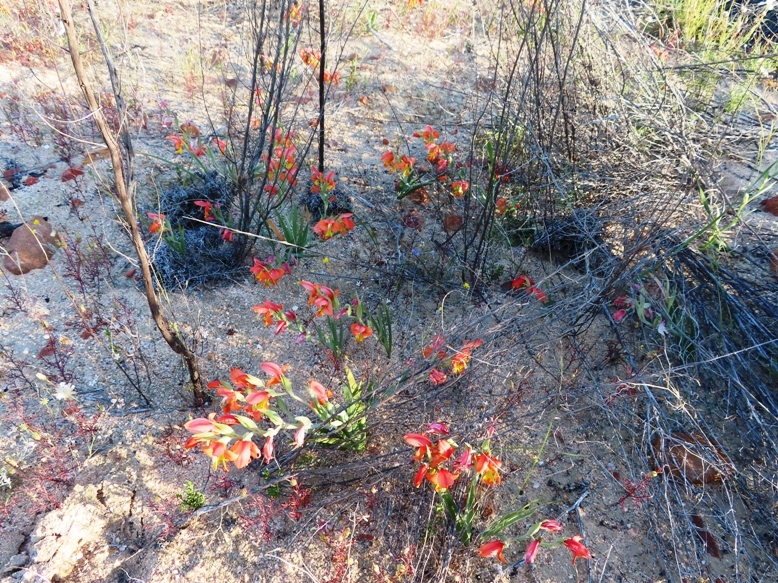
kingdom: Plantae
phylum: Tracheophyta
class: Liliopsida
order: Asparagales
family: Iridaceae
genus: Gladiolus
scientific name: Gladiolus speciosus
